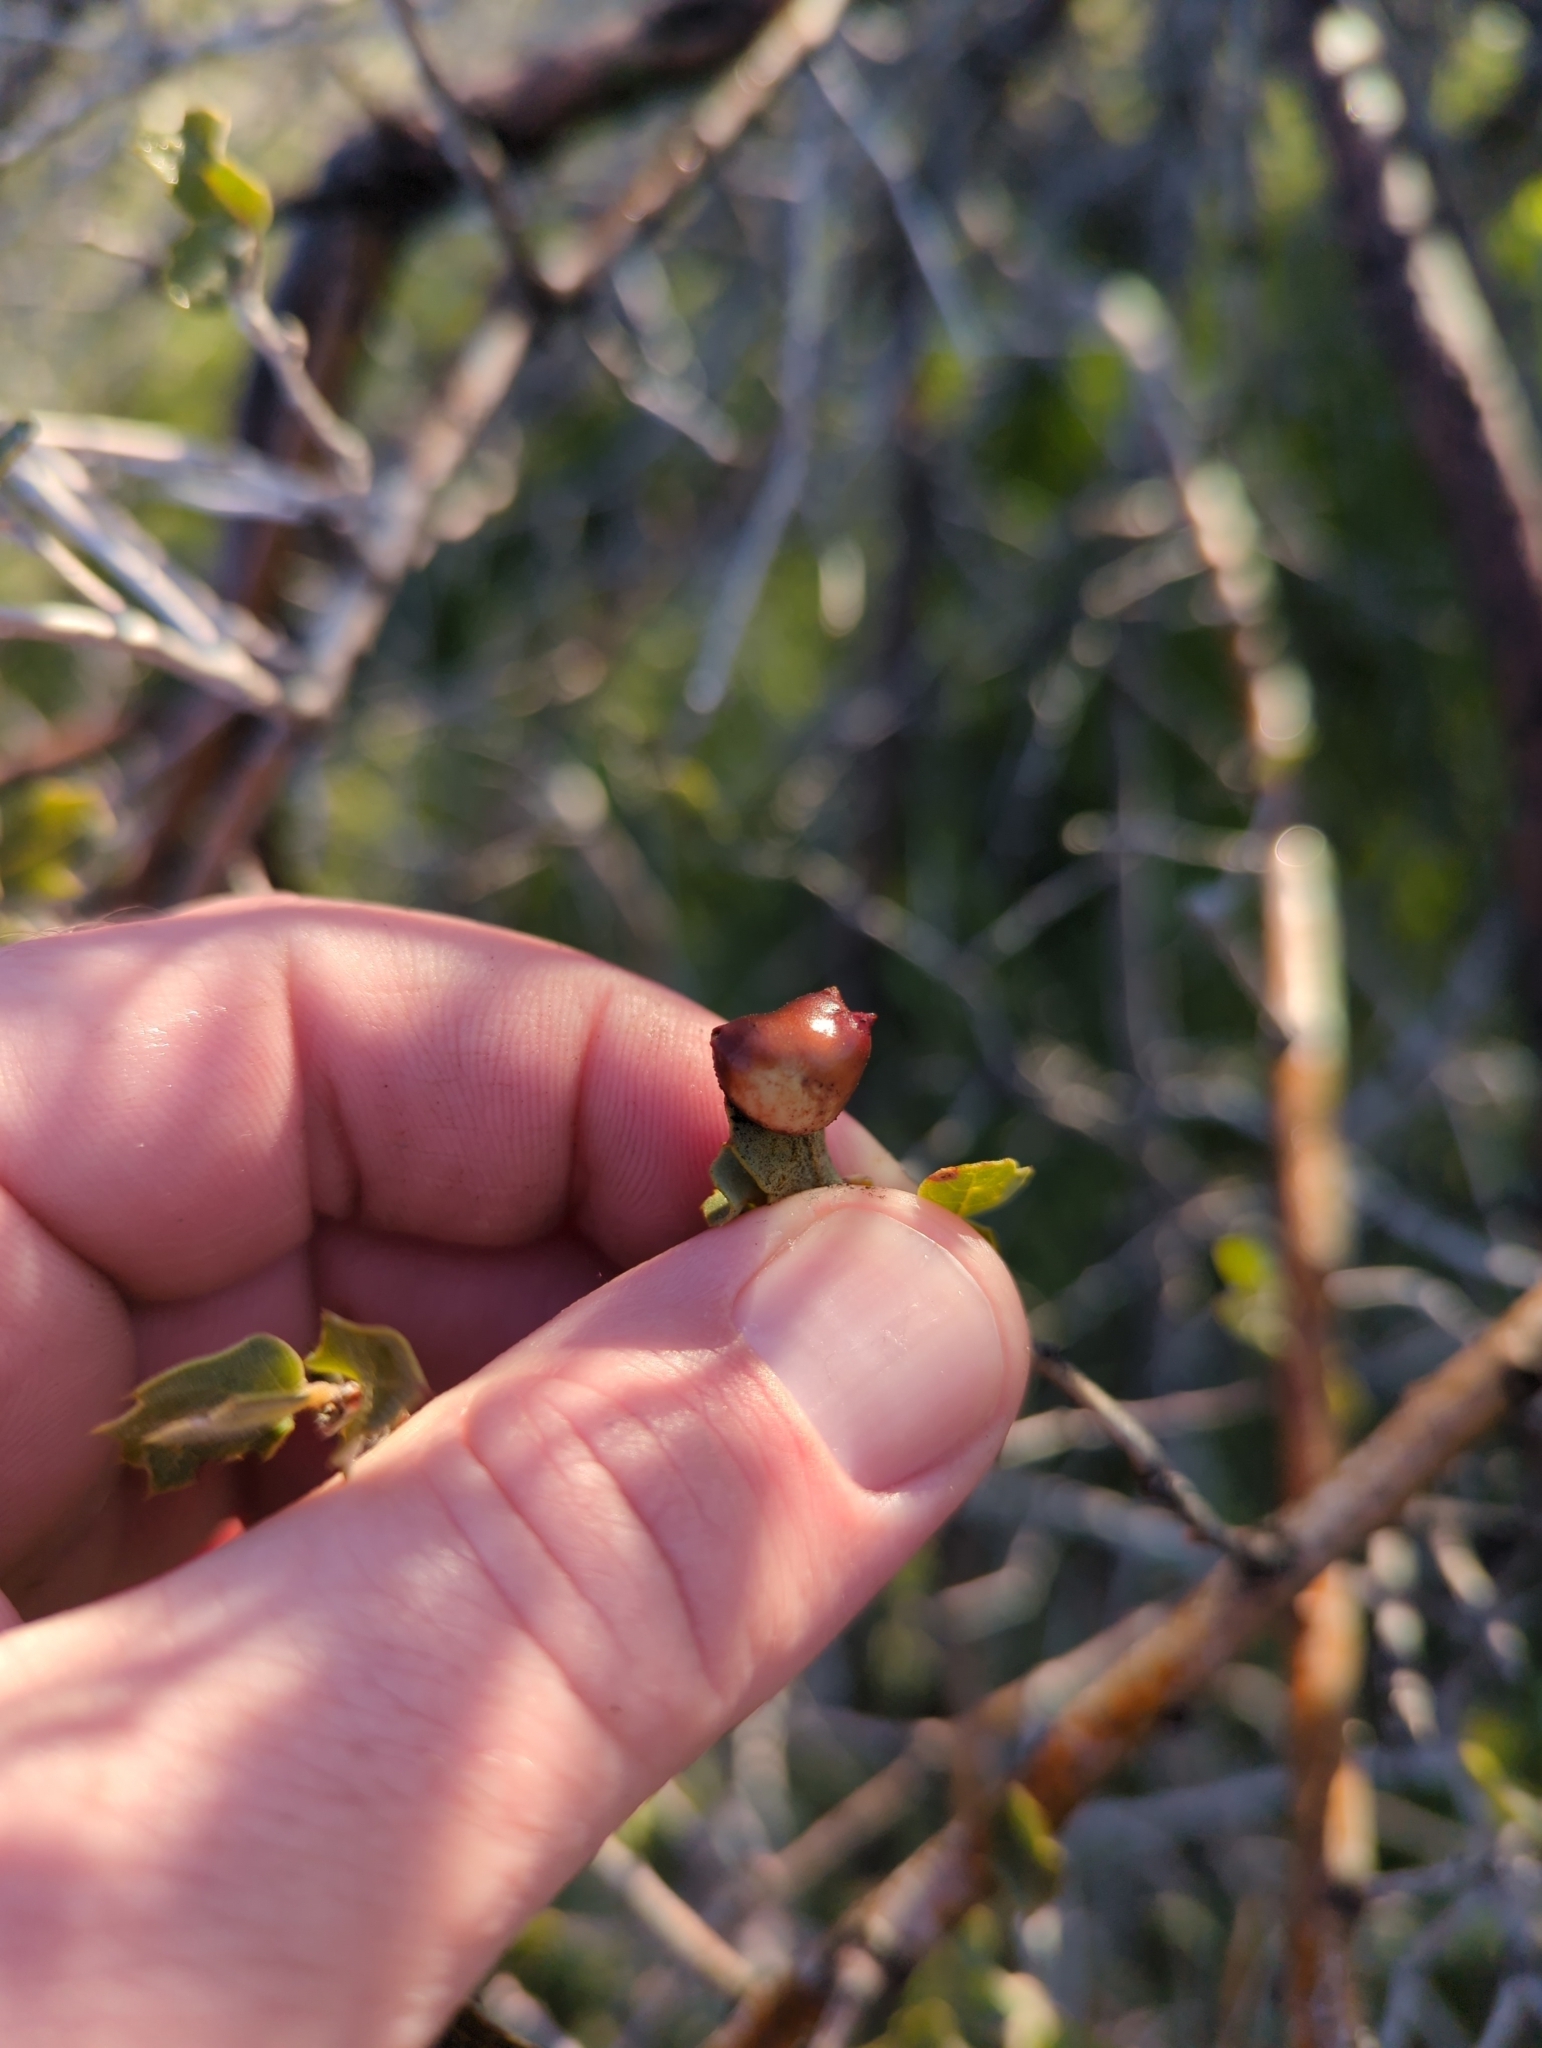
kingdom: Animalia
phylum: Arthropoda
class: Insecta
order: Hymenoptera
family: Cynipidae
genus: Cynips
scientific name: Cynips douglasi
